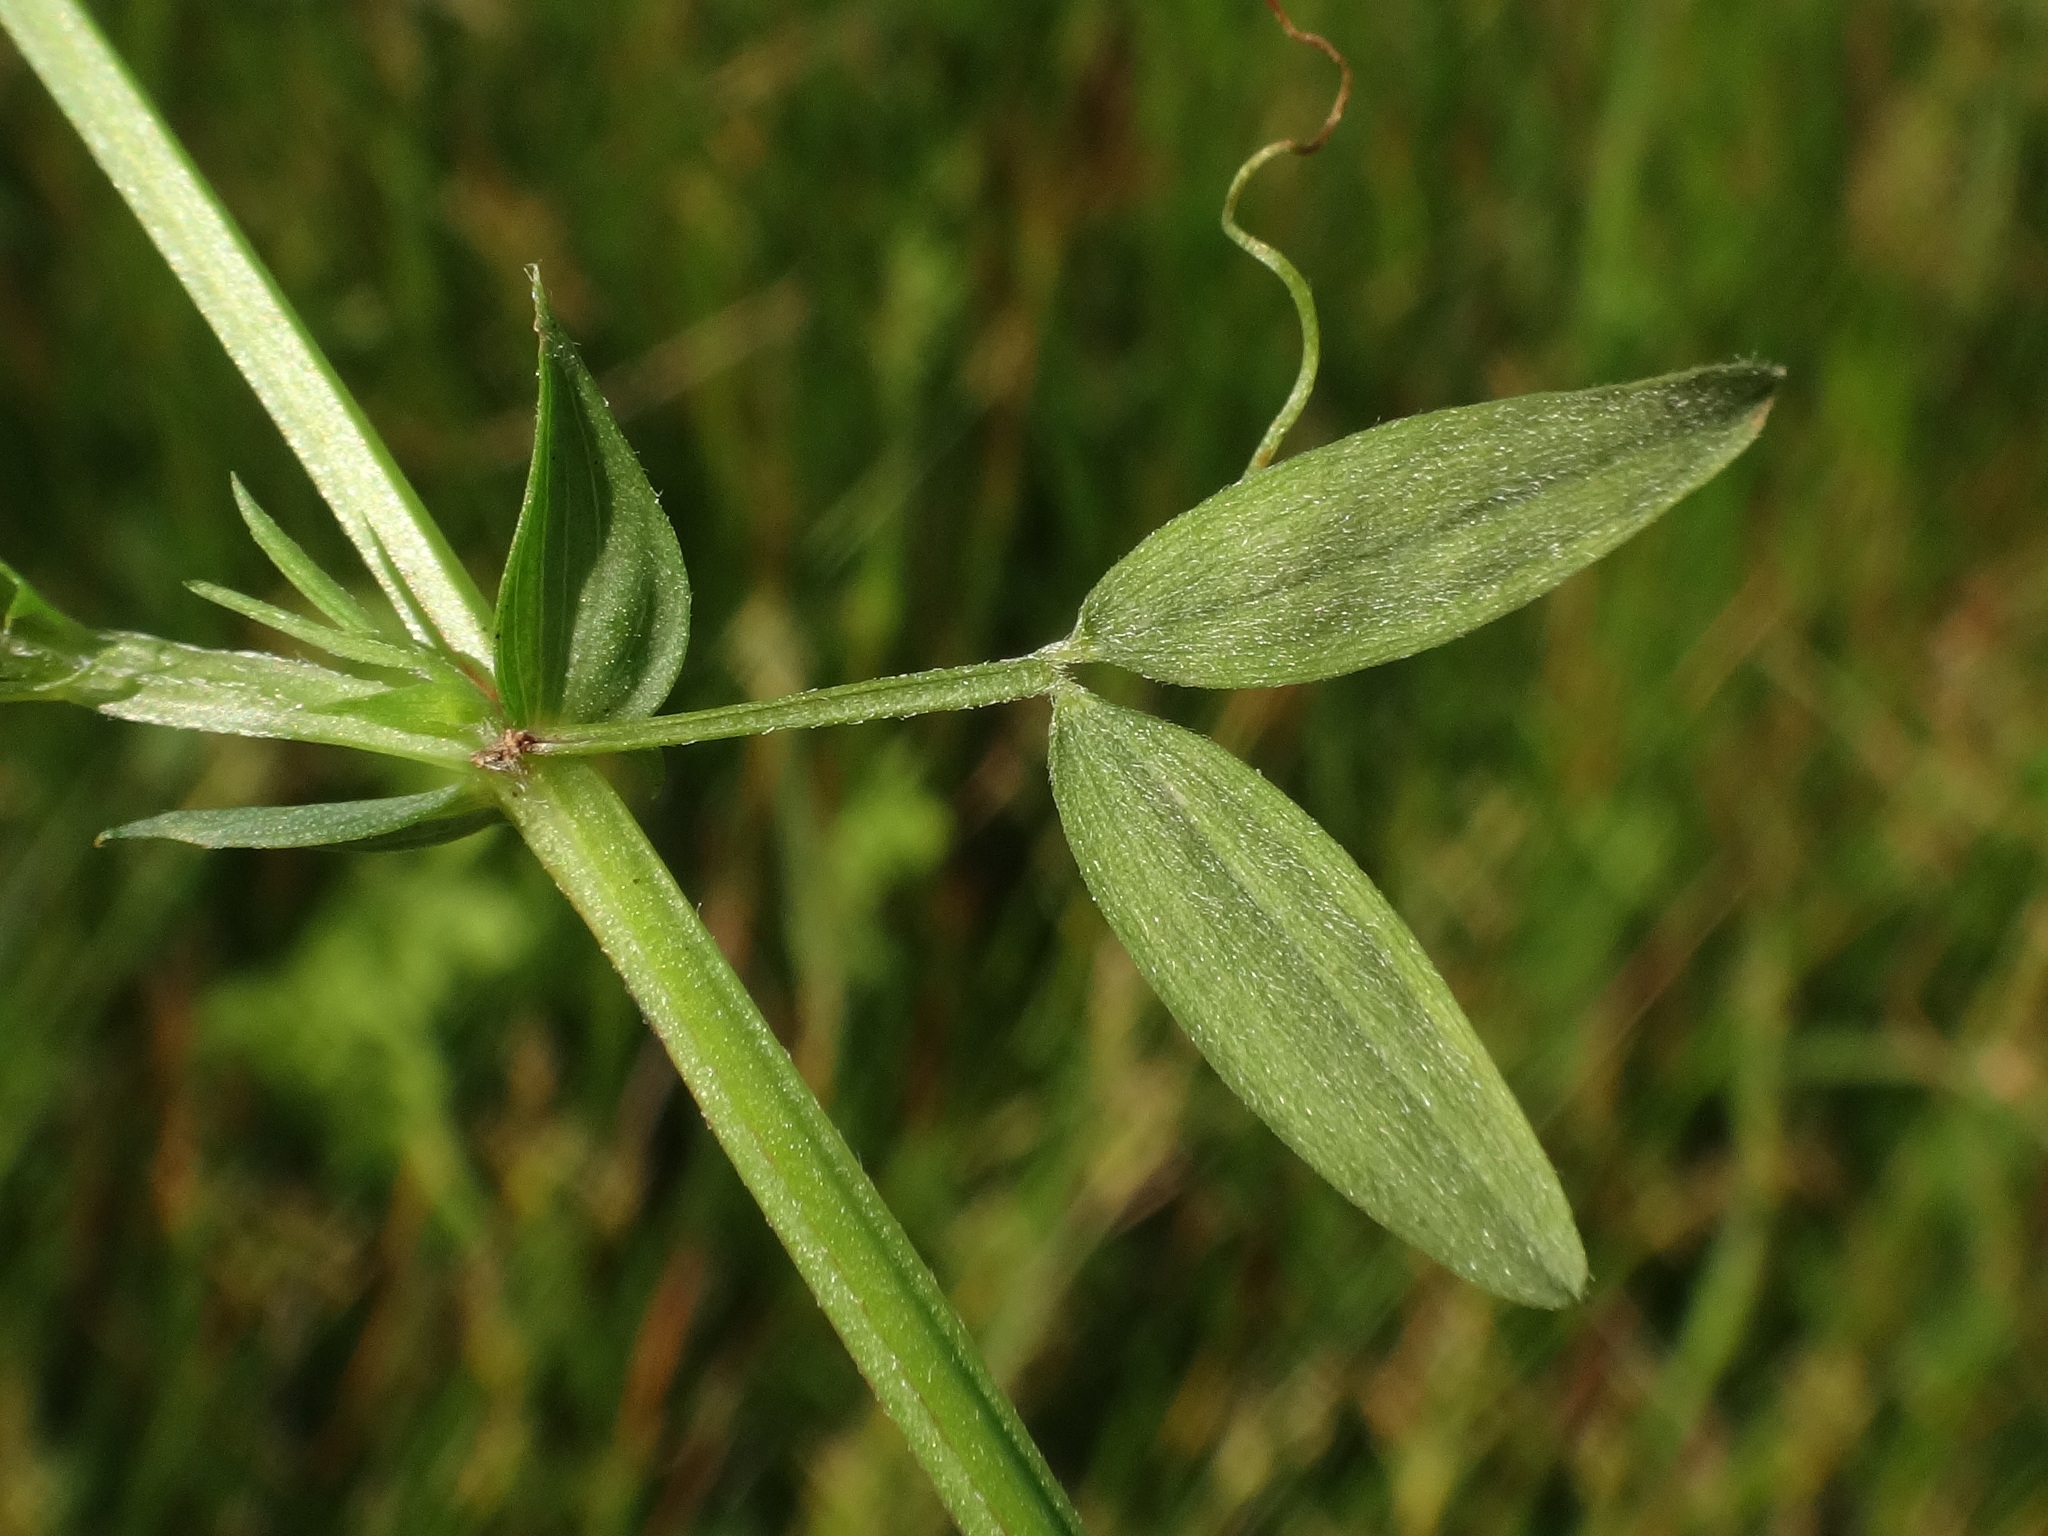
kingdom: Plantae
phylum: Tracheophyta
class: Magnoliopsida
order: Fabales
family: Fabaceae
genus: Lathyrus
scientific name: Lathyrus pratensis
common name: Meadow vetchling
